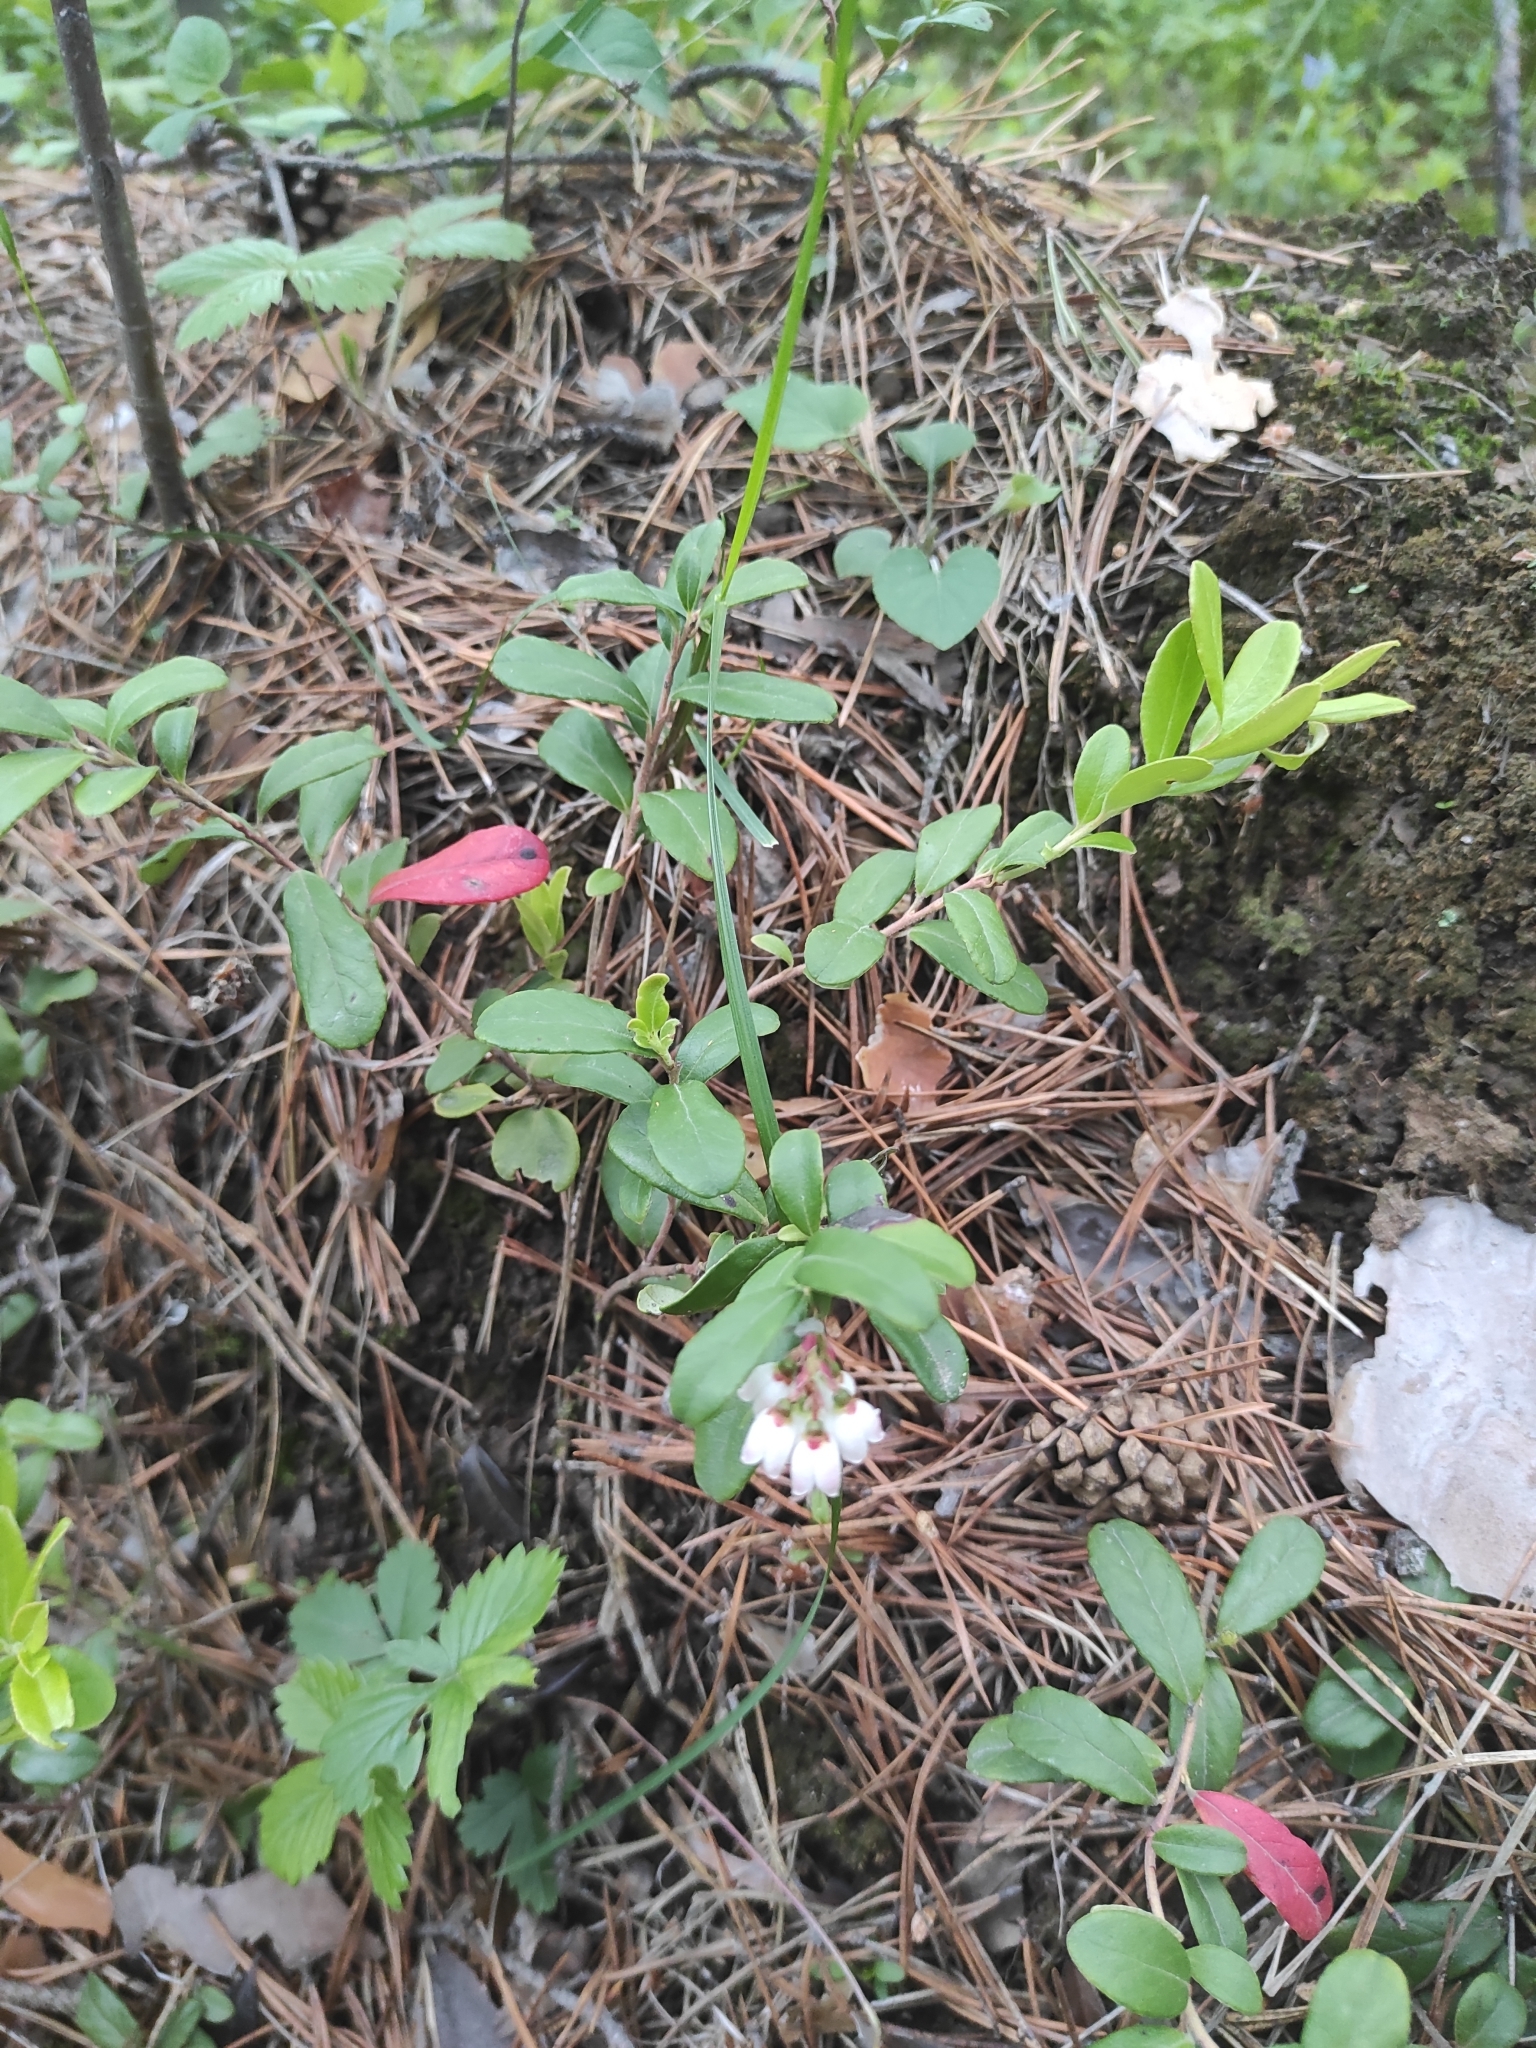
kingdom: Plantae
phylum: Tracheophyta
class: Magnoliopsida
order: Ericales
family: Ericaceae
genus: Vaccinium
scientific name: Vaccinium vitis-idaea
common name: Cowberry
